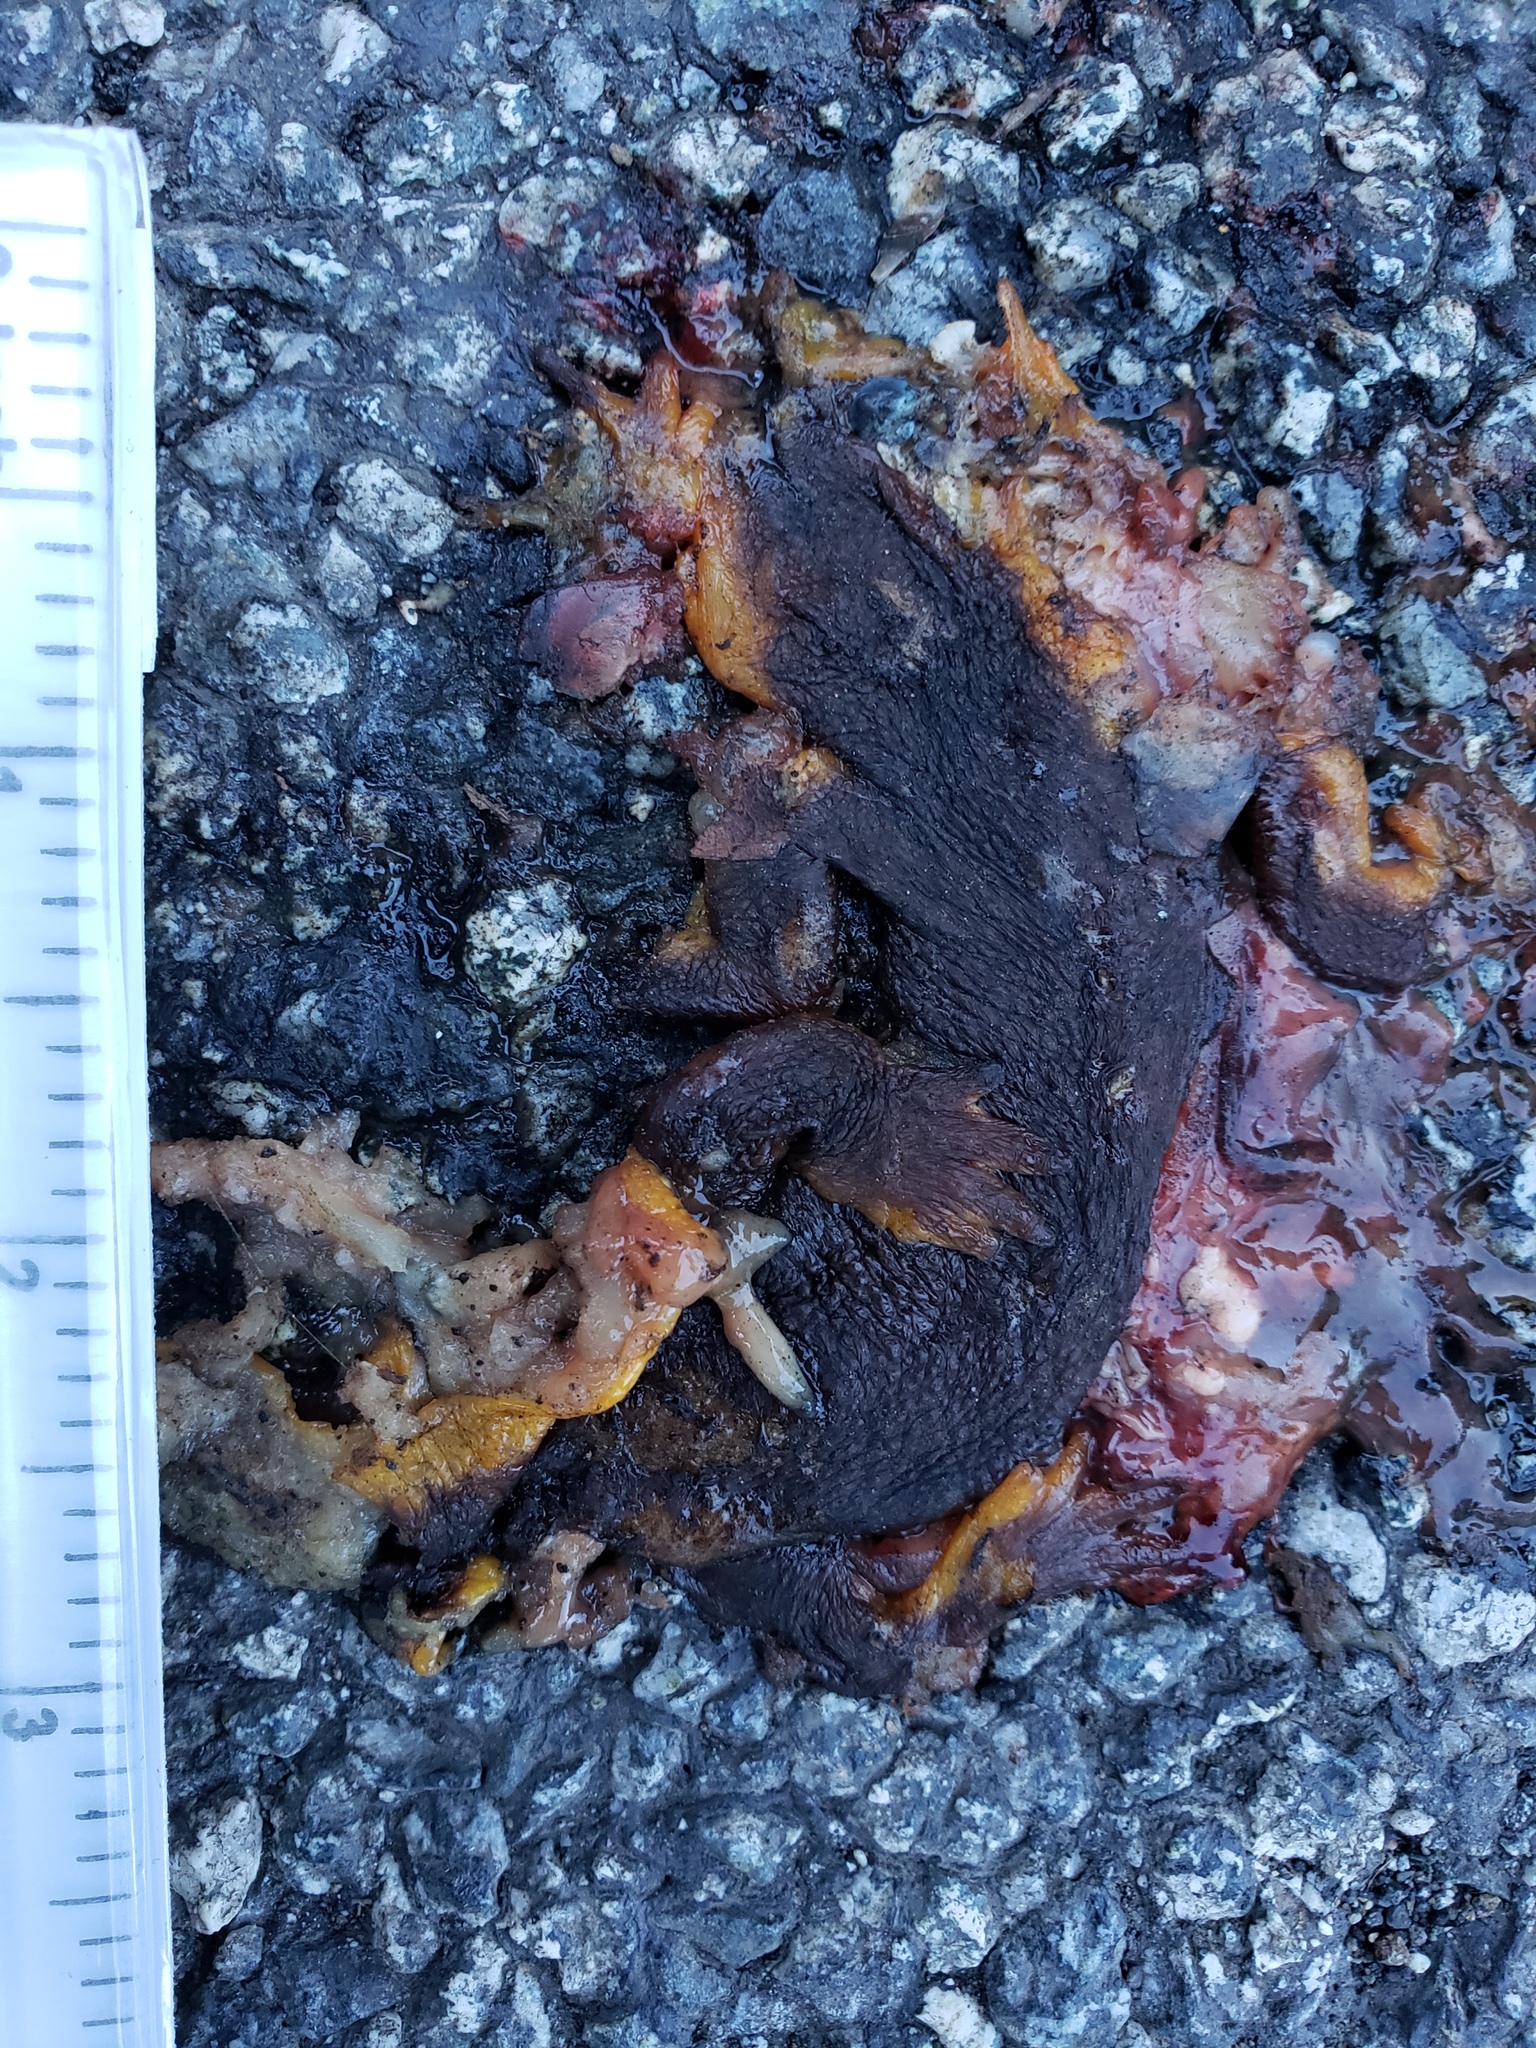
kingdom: Animalia
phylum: Chordata
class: Amphibia
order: Caudata
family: Salamandridae
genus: Taricha
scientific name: Taricha
